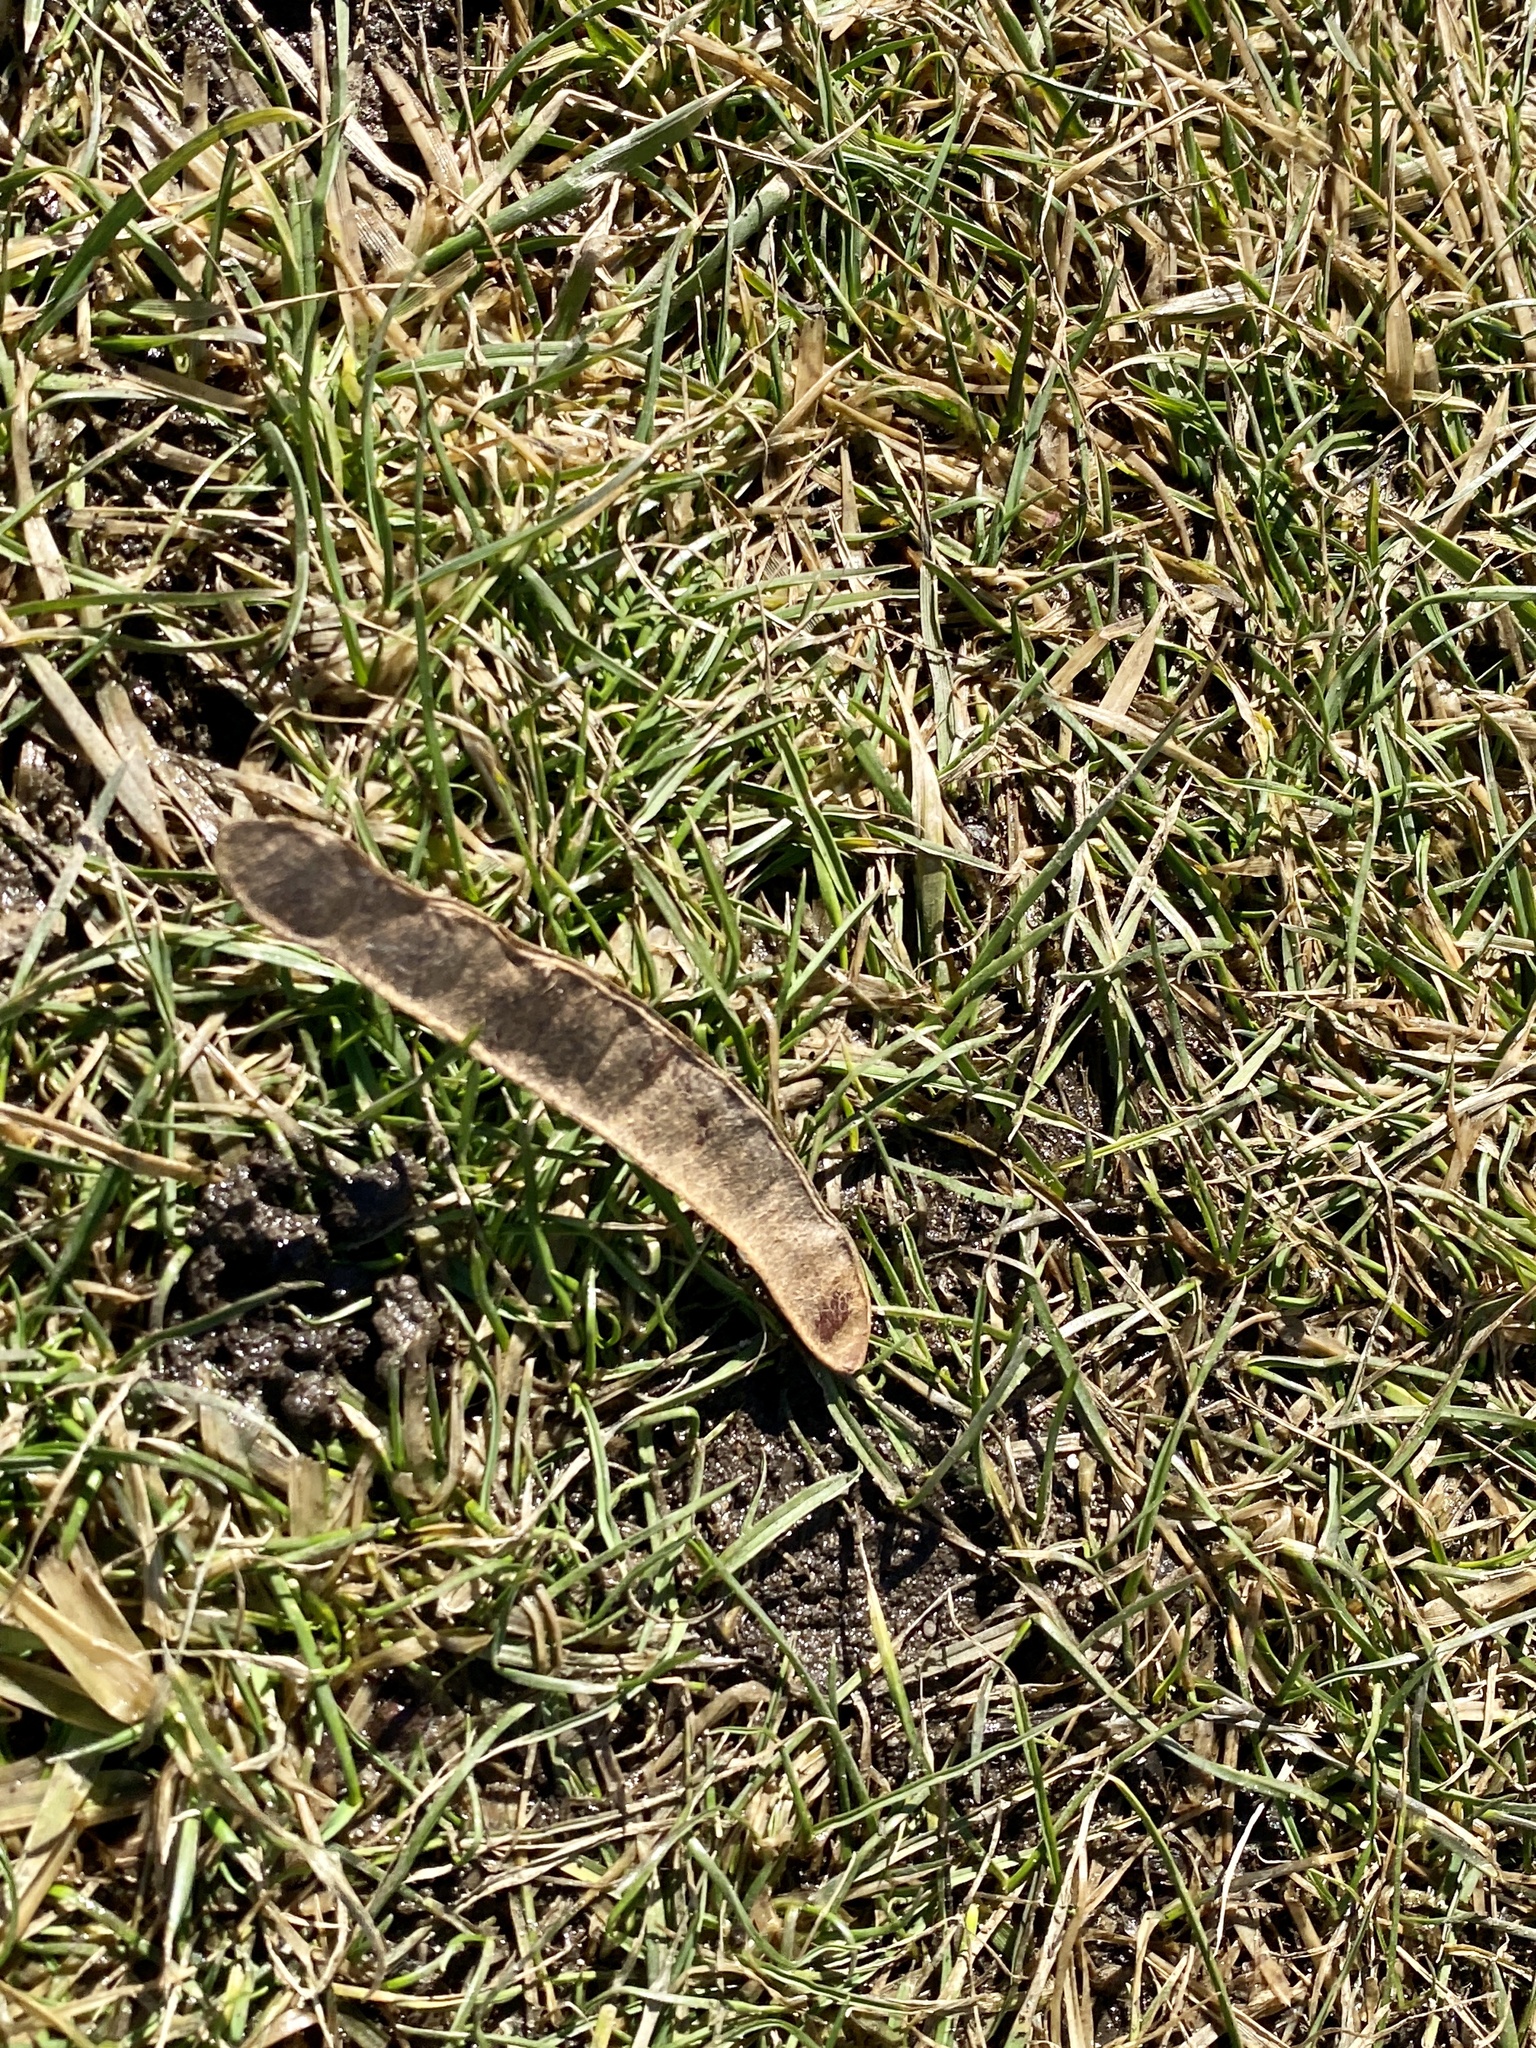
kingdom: Plantae
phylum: Tracheophyta
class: Magnoliopsida
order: Fabales
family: Fabaceae
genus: Robinia
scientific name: Robinia pseudoacacia
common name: Black locust
